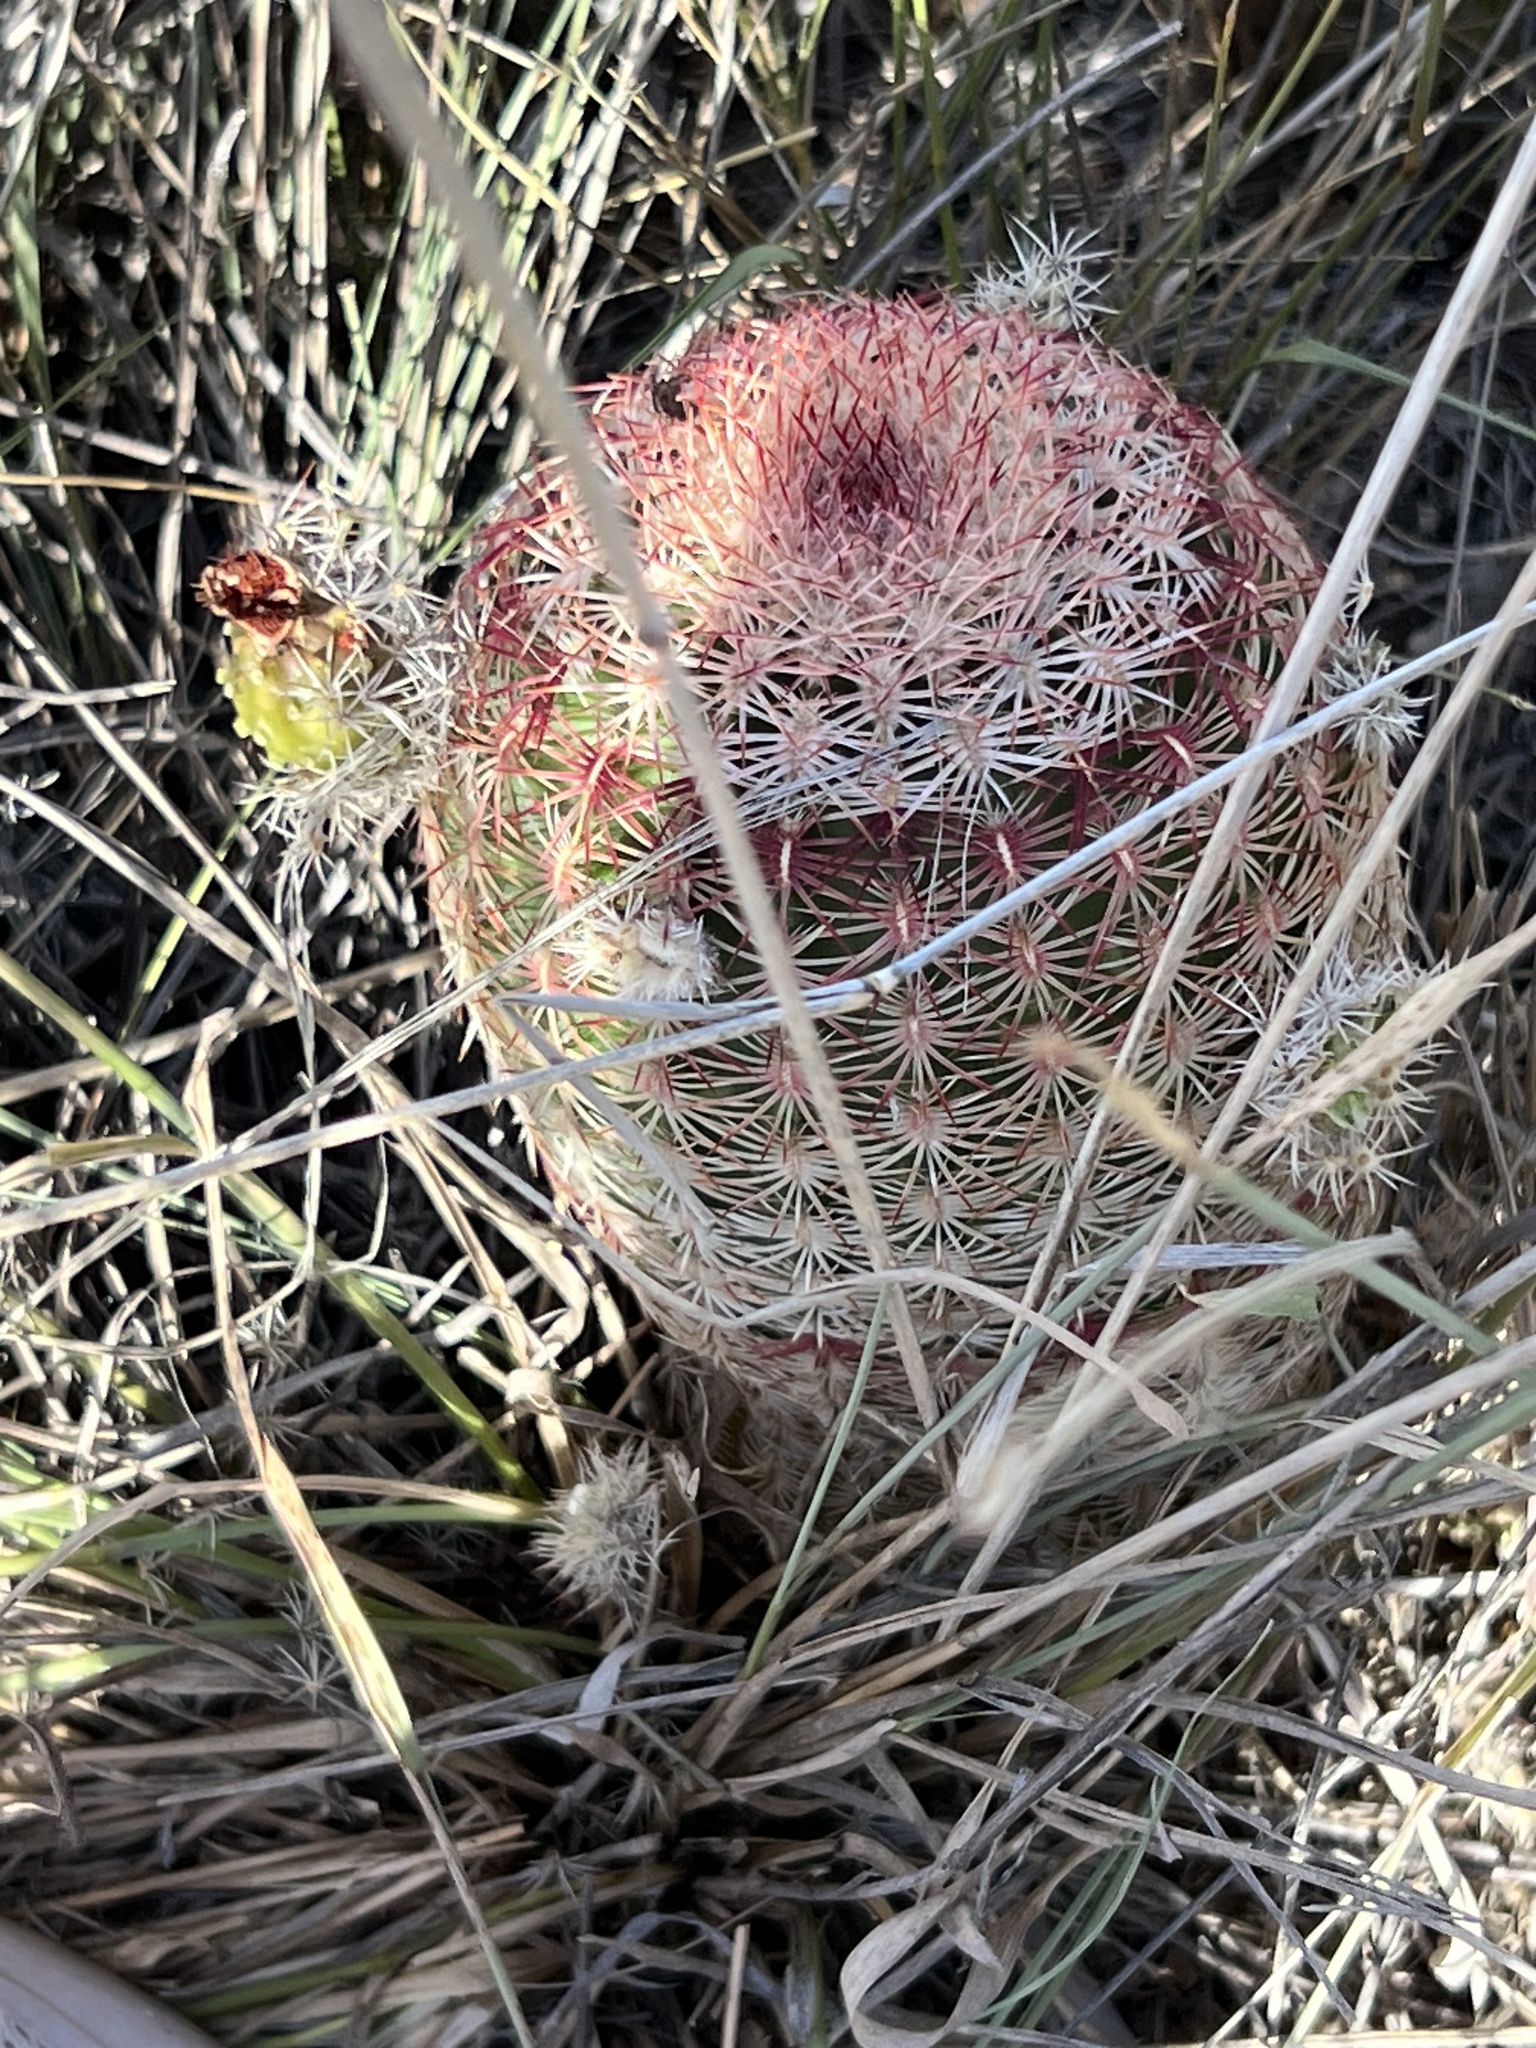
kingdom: Plantae
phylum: Tracheophyta
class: Magnoliopsida
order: Caryophyllales
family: Cactaceae
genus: Echinocereus
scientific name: Echinocereus rigidissimus
